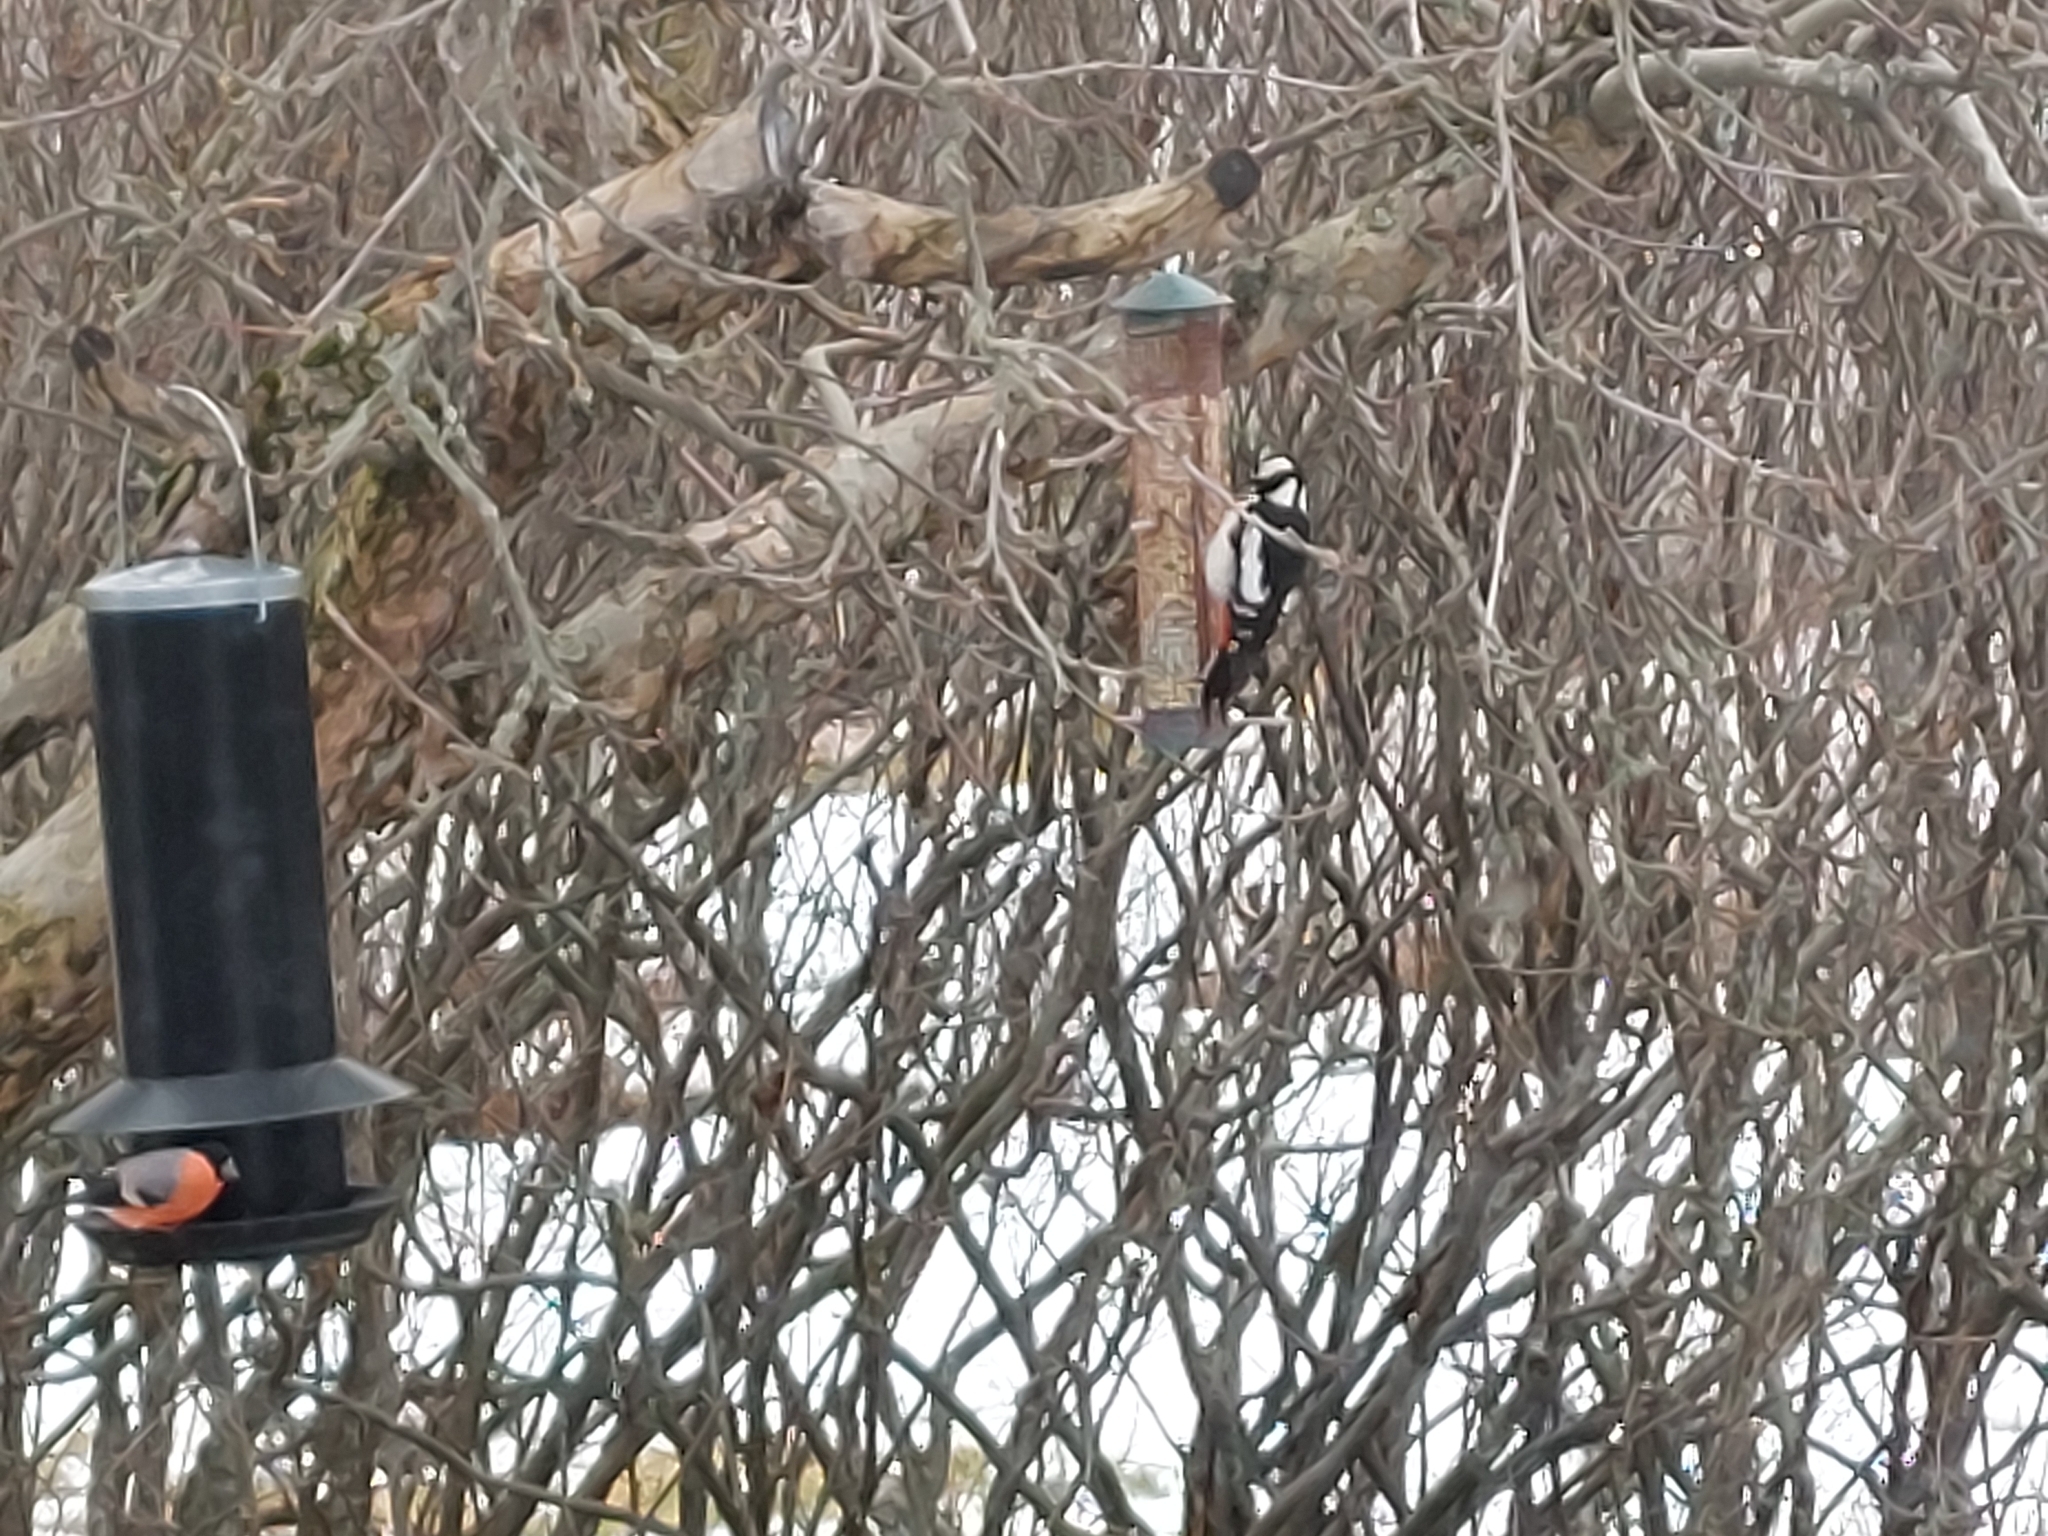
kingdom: Animalia
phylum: Chordata
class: Aves
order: Piciformes
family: Picidae
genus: Dendrocopos
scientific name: Dendrocopos major
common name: Great spotted woodpecker
